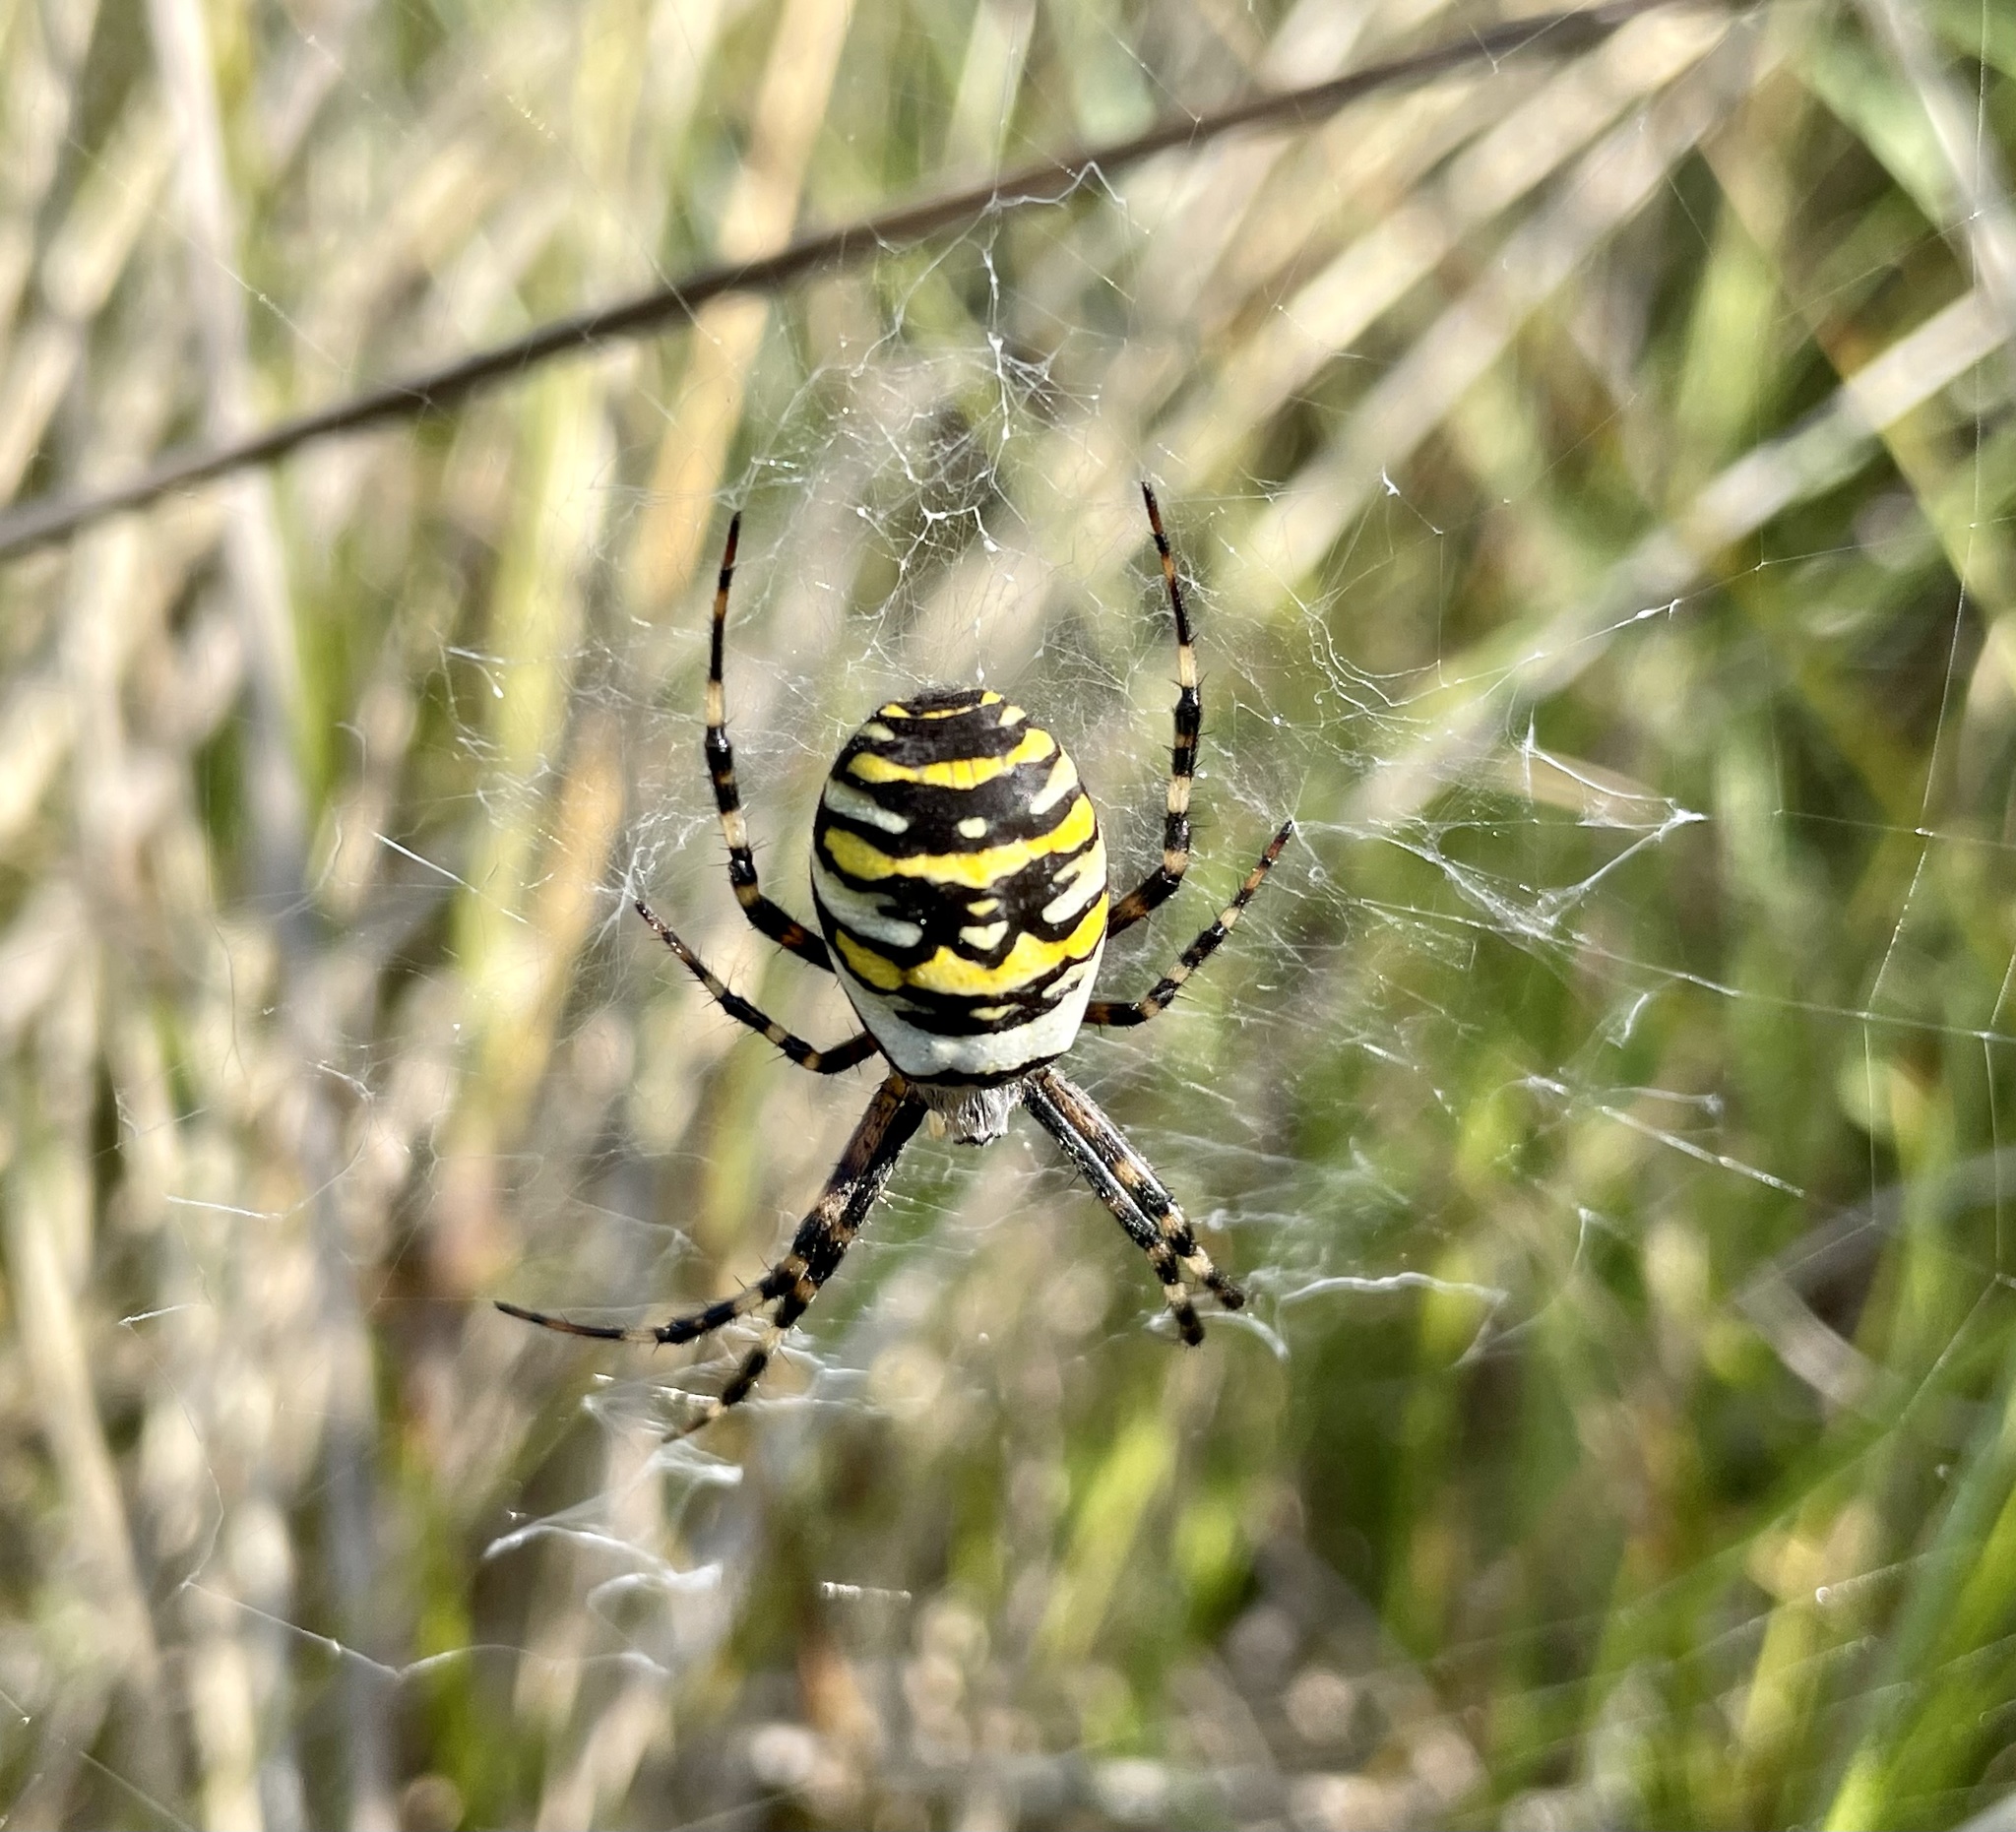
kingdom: Animalia
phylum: Arthropoda
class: Arachnida
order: Araneae
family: Araneidae
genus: Argiope
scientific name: Argiope bruennichi
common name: Wasp spider
